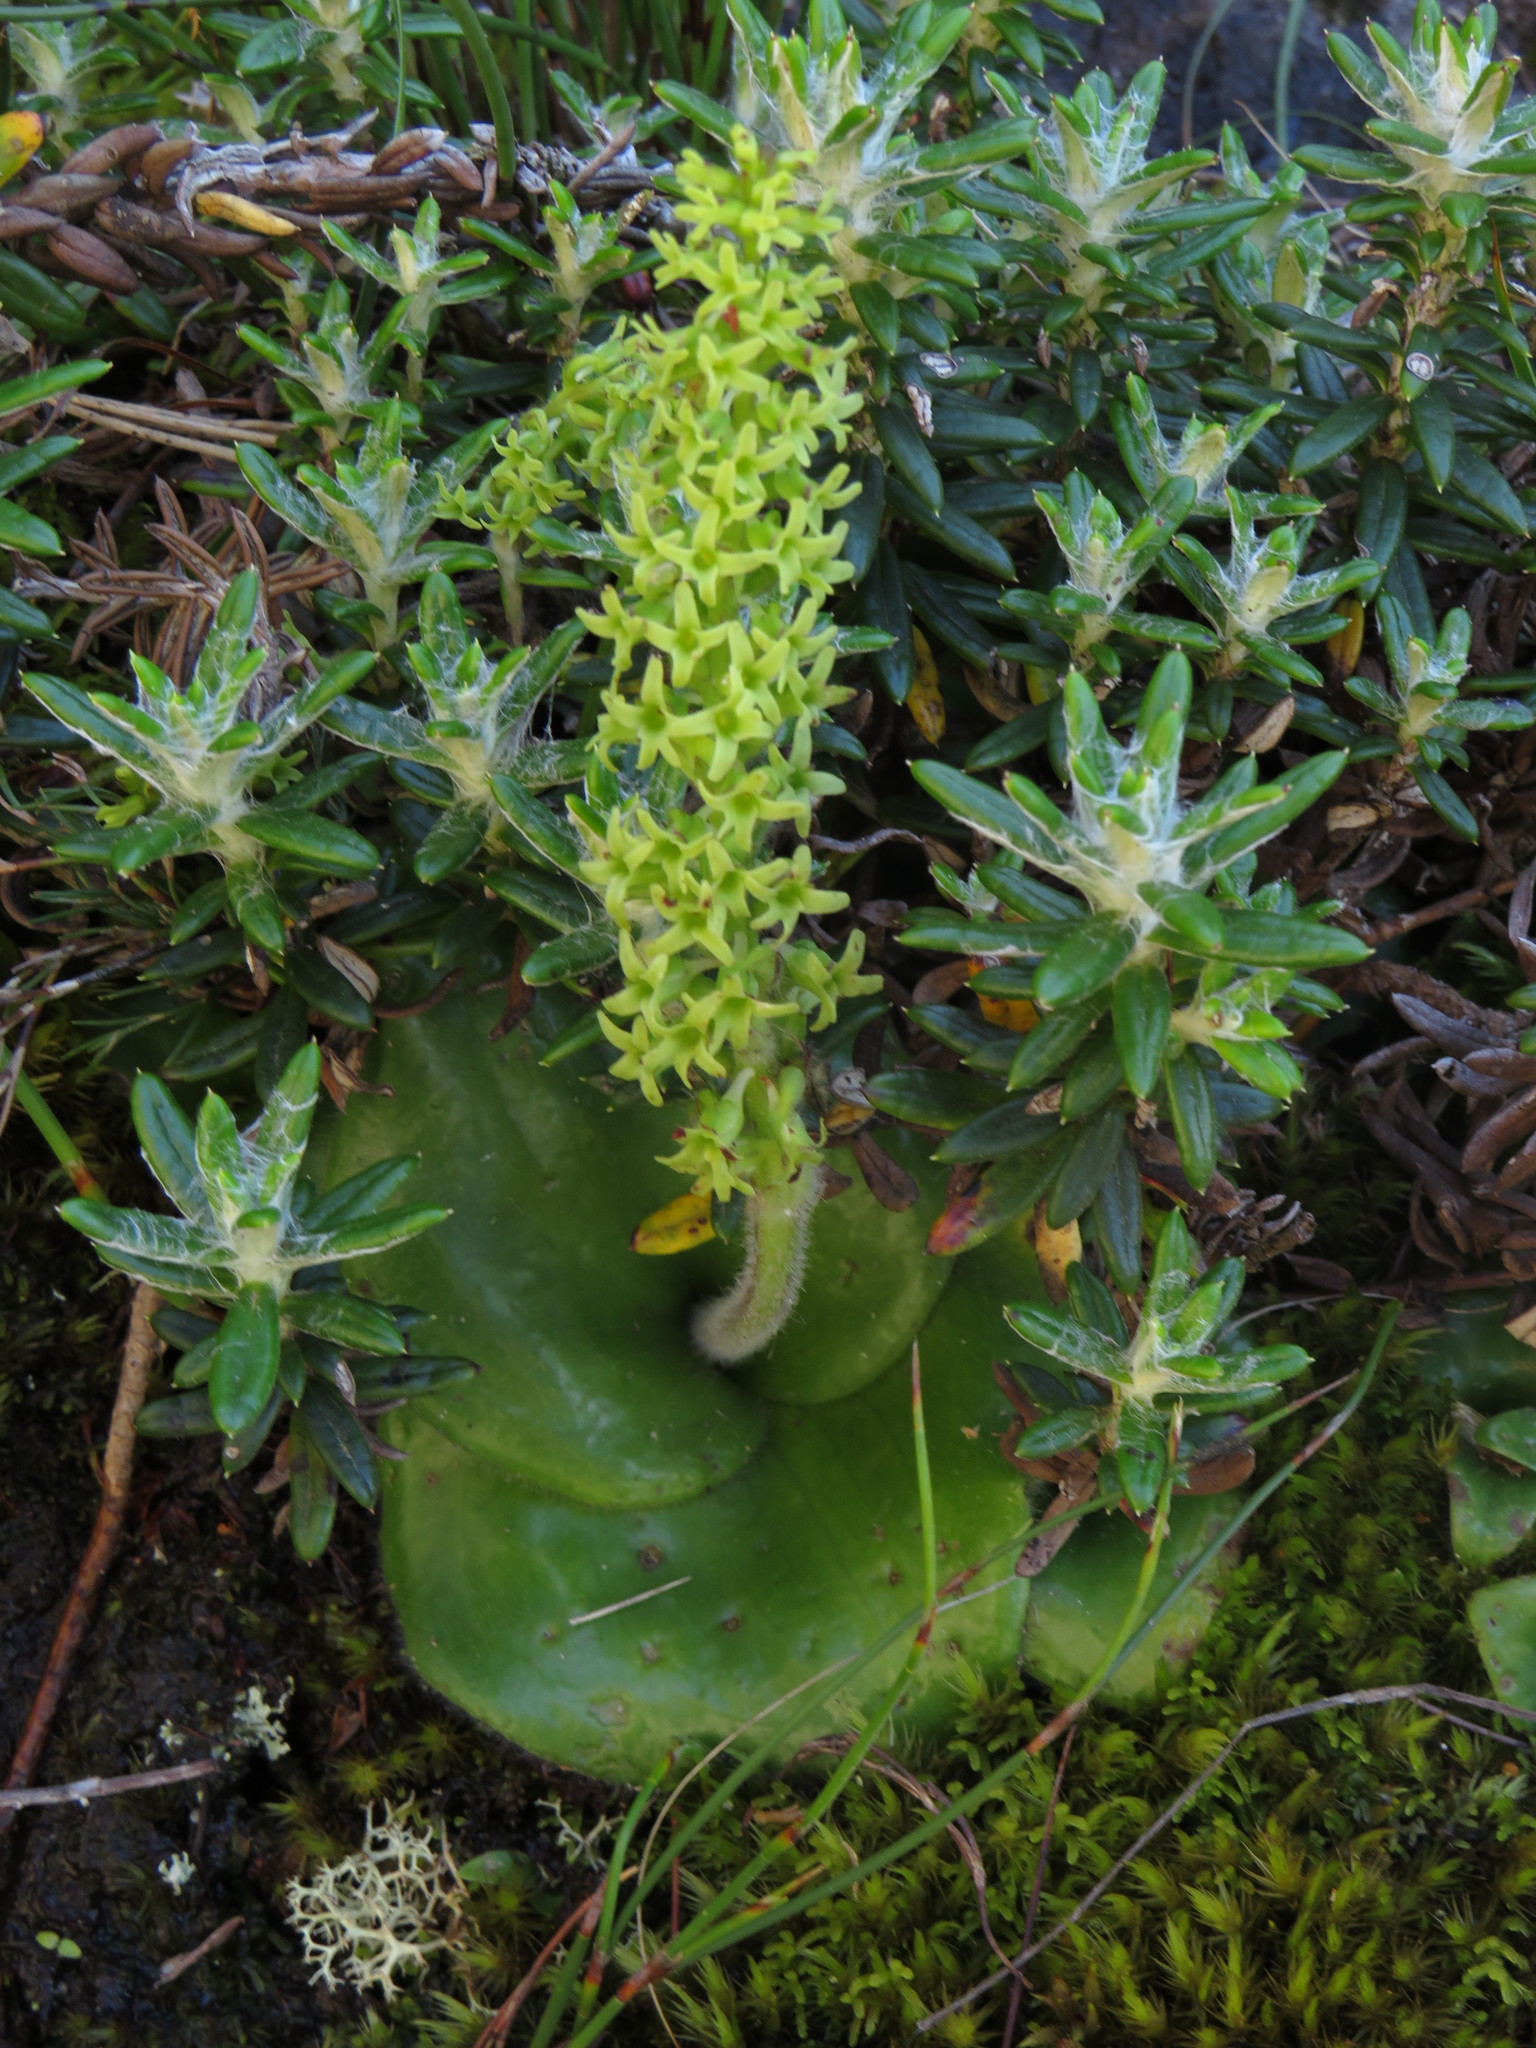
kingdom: Plantae
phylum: Tracheophyta
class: Liliopsida
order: Asparagales
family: Orchidaceae
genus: Holothrix
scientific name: Holothrix condensata
